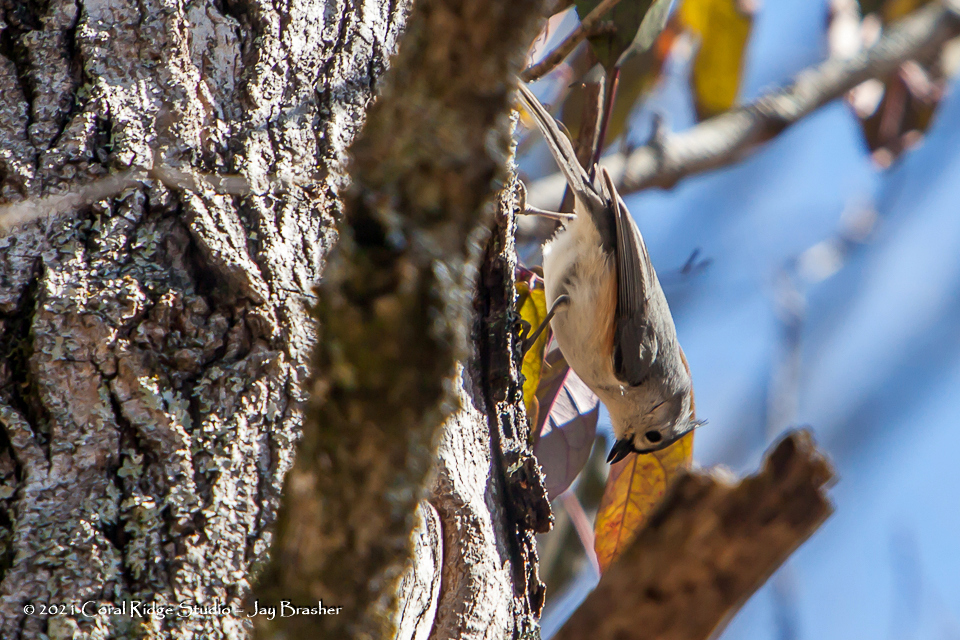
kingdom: Animalia
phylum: Chordata
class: Aves
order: Passeriformes
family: Paridae
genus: Baeolophus
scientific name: Baeolophus bicolor
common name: Tufted titmouse
